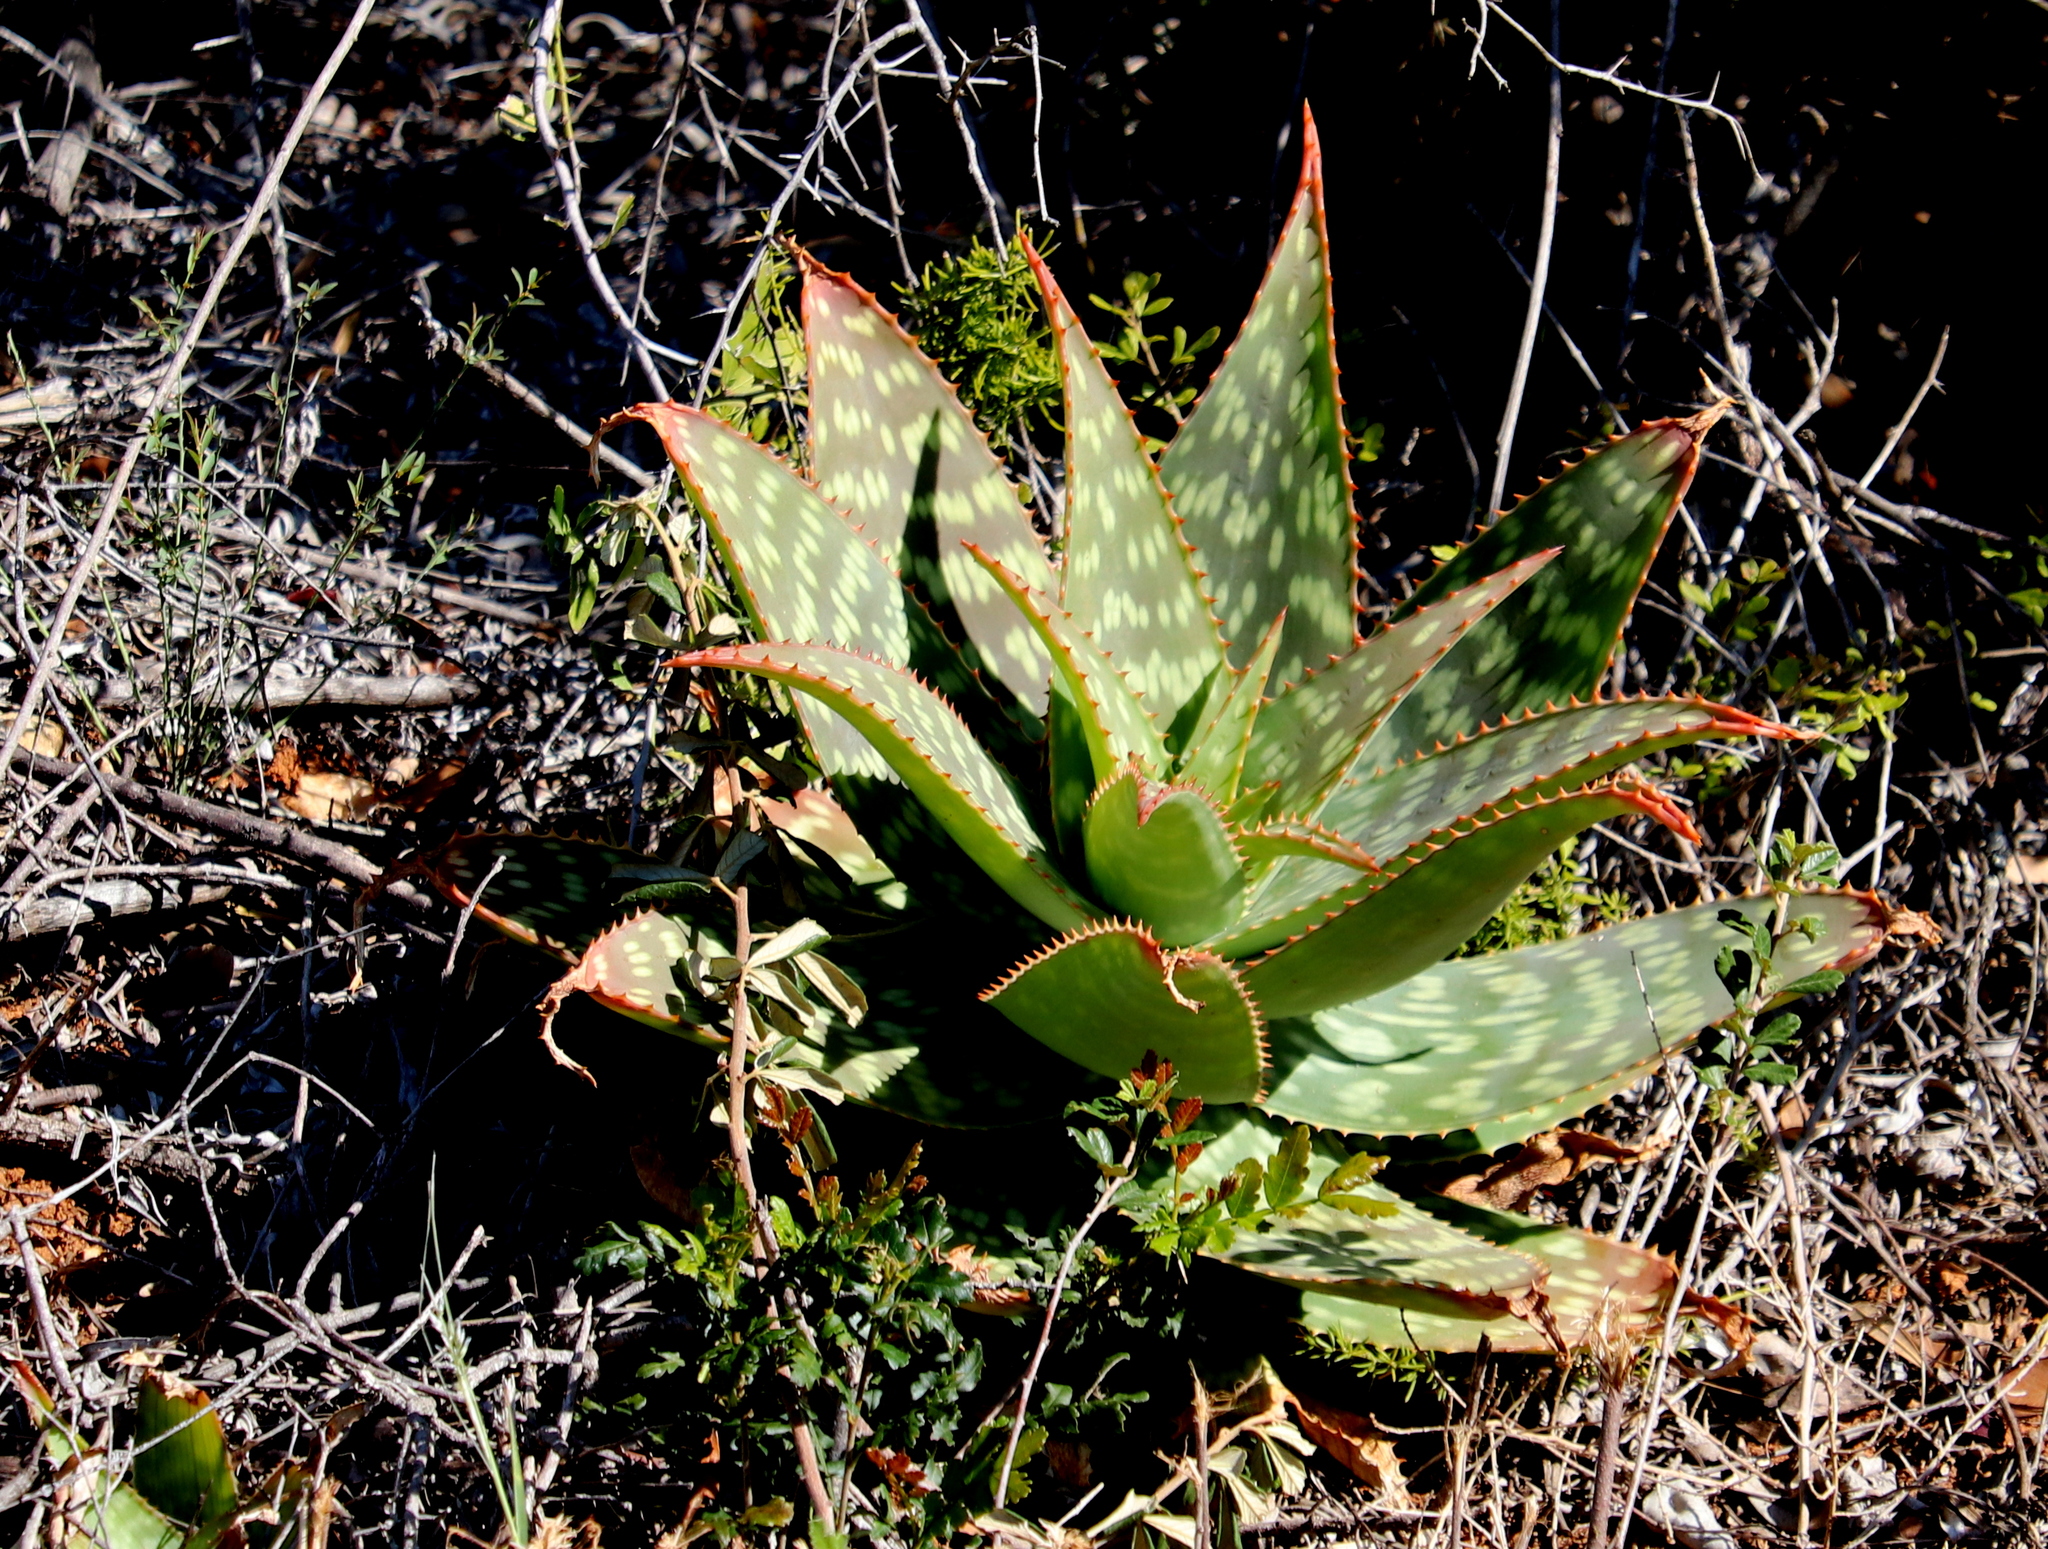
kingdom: Plantae
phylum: Tracheophyta
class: Liliopsida
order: Asparagales
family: Asphodelaceae
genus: Aloe
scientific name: Aloe maculata
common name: Broadleaf aloe
